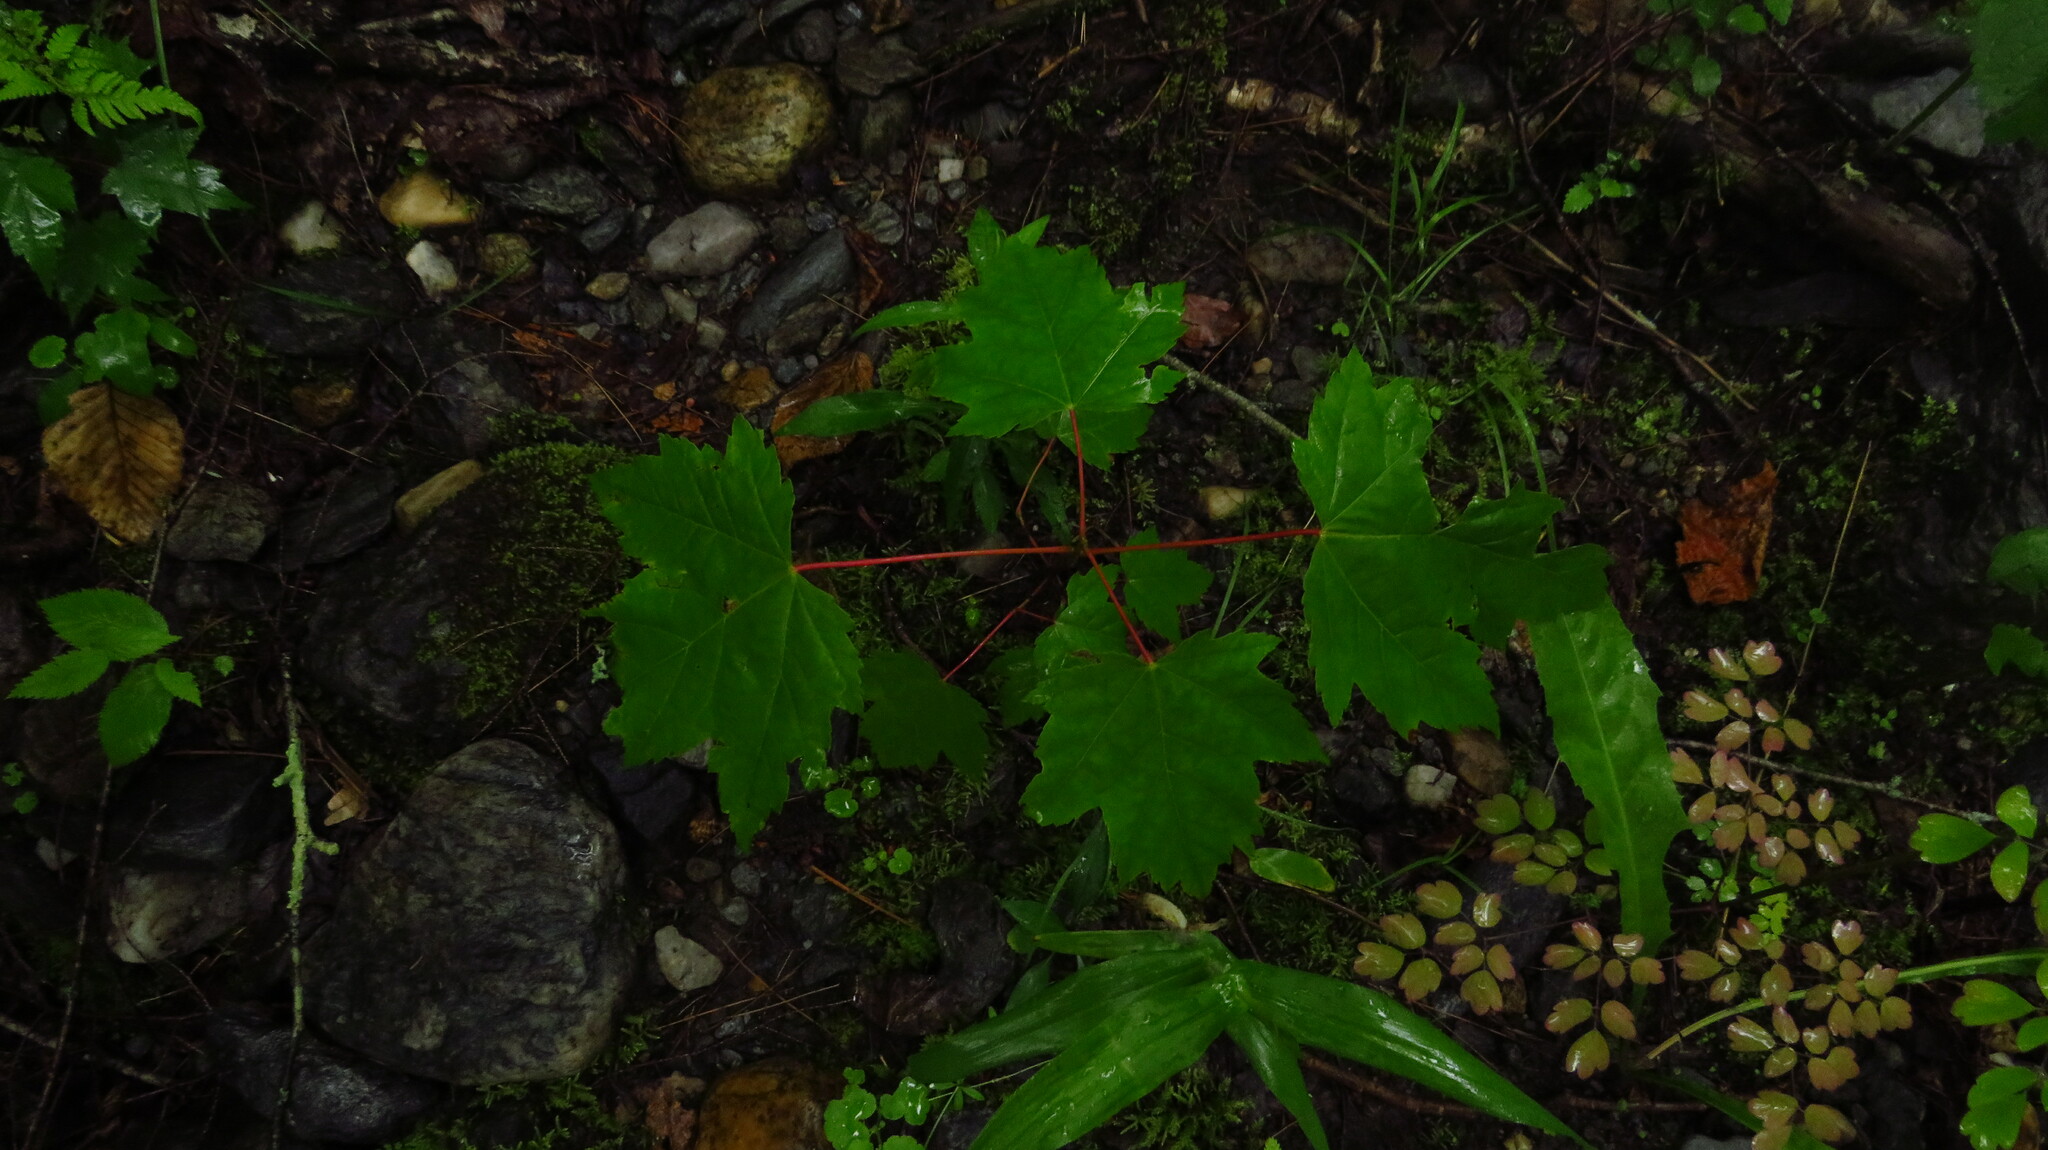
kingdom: Plantae
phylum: Tracheophyta
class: Magnoliopsida
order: Sapindales
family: Sapindaceae
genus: Acer
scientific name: Acer rubrum
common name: Red maple
